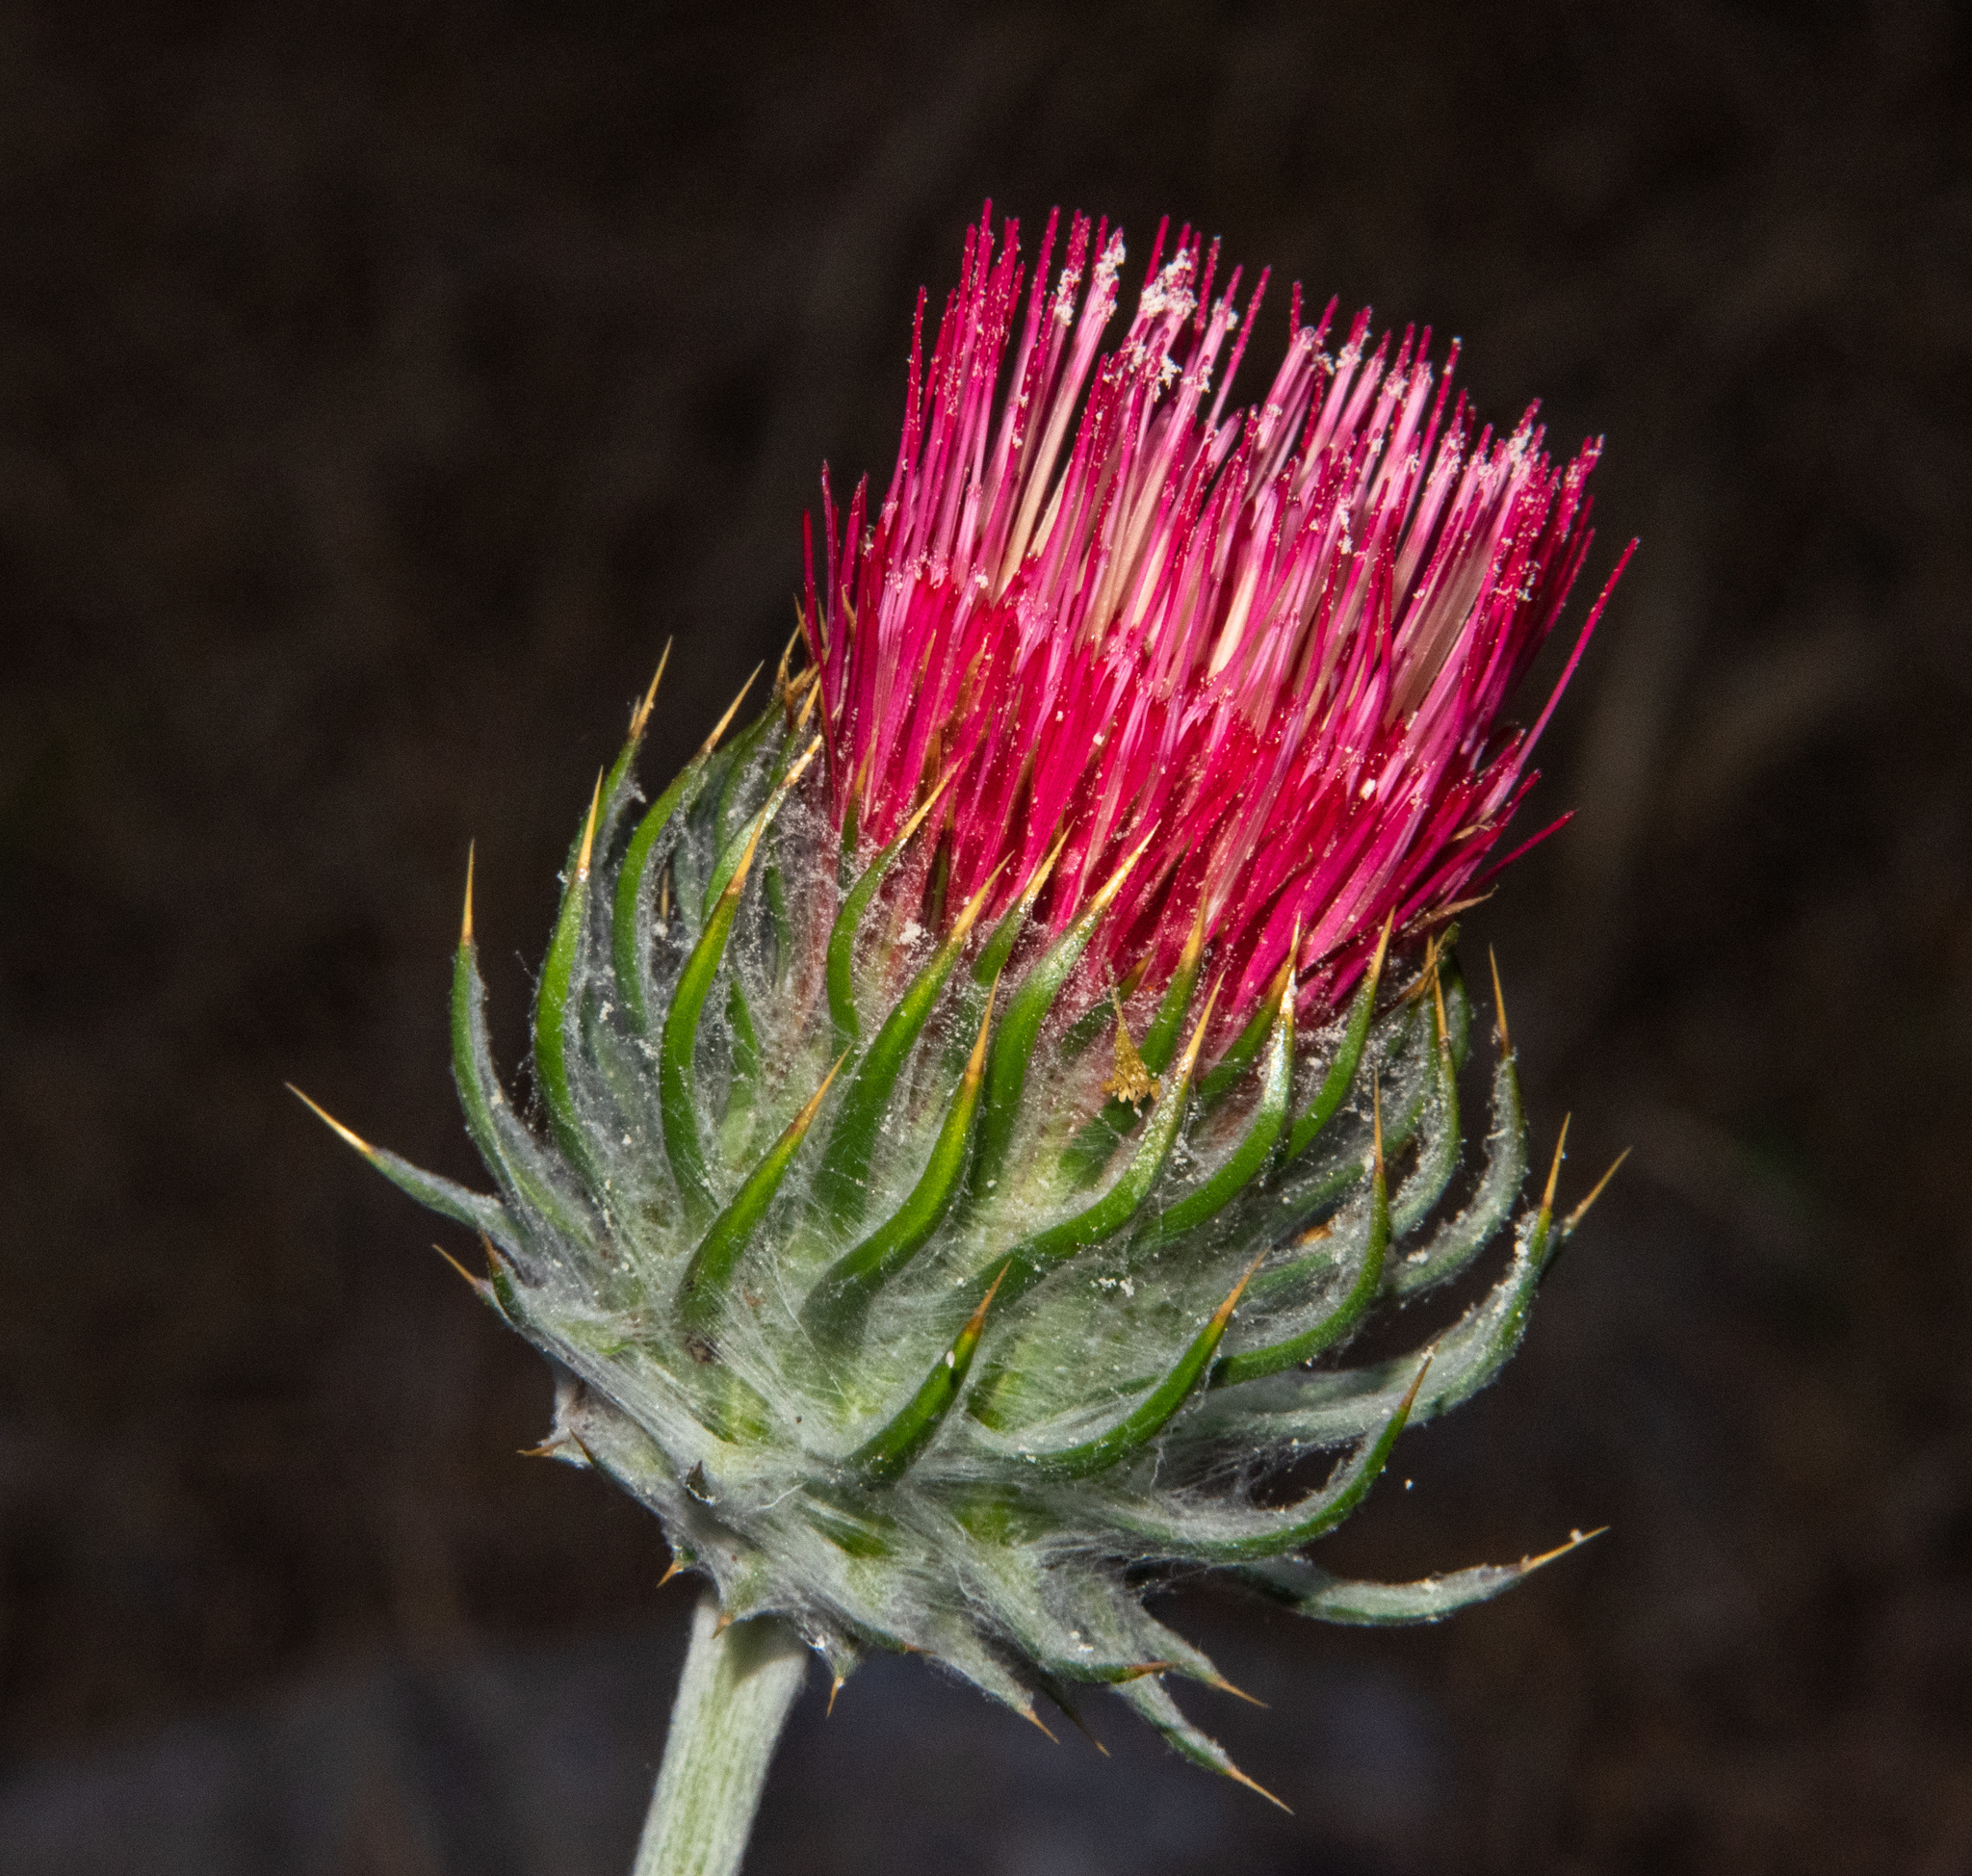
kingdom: Plantae
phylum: Tracheophyta
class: Magnoliopsida
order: Asterales
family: Asteraceae
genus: Cirsium
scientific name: Cirsium occidentale
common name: Western thistle
